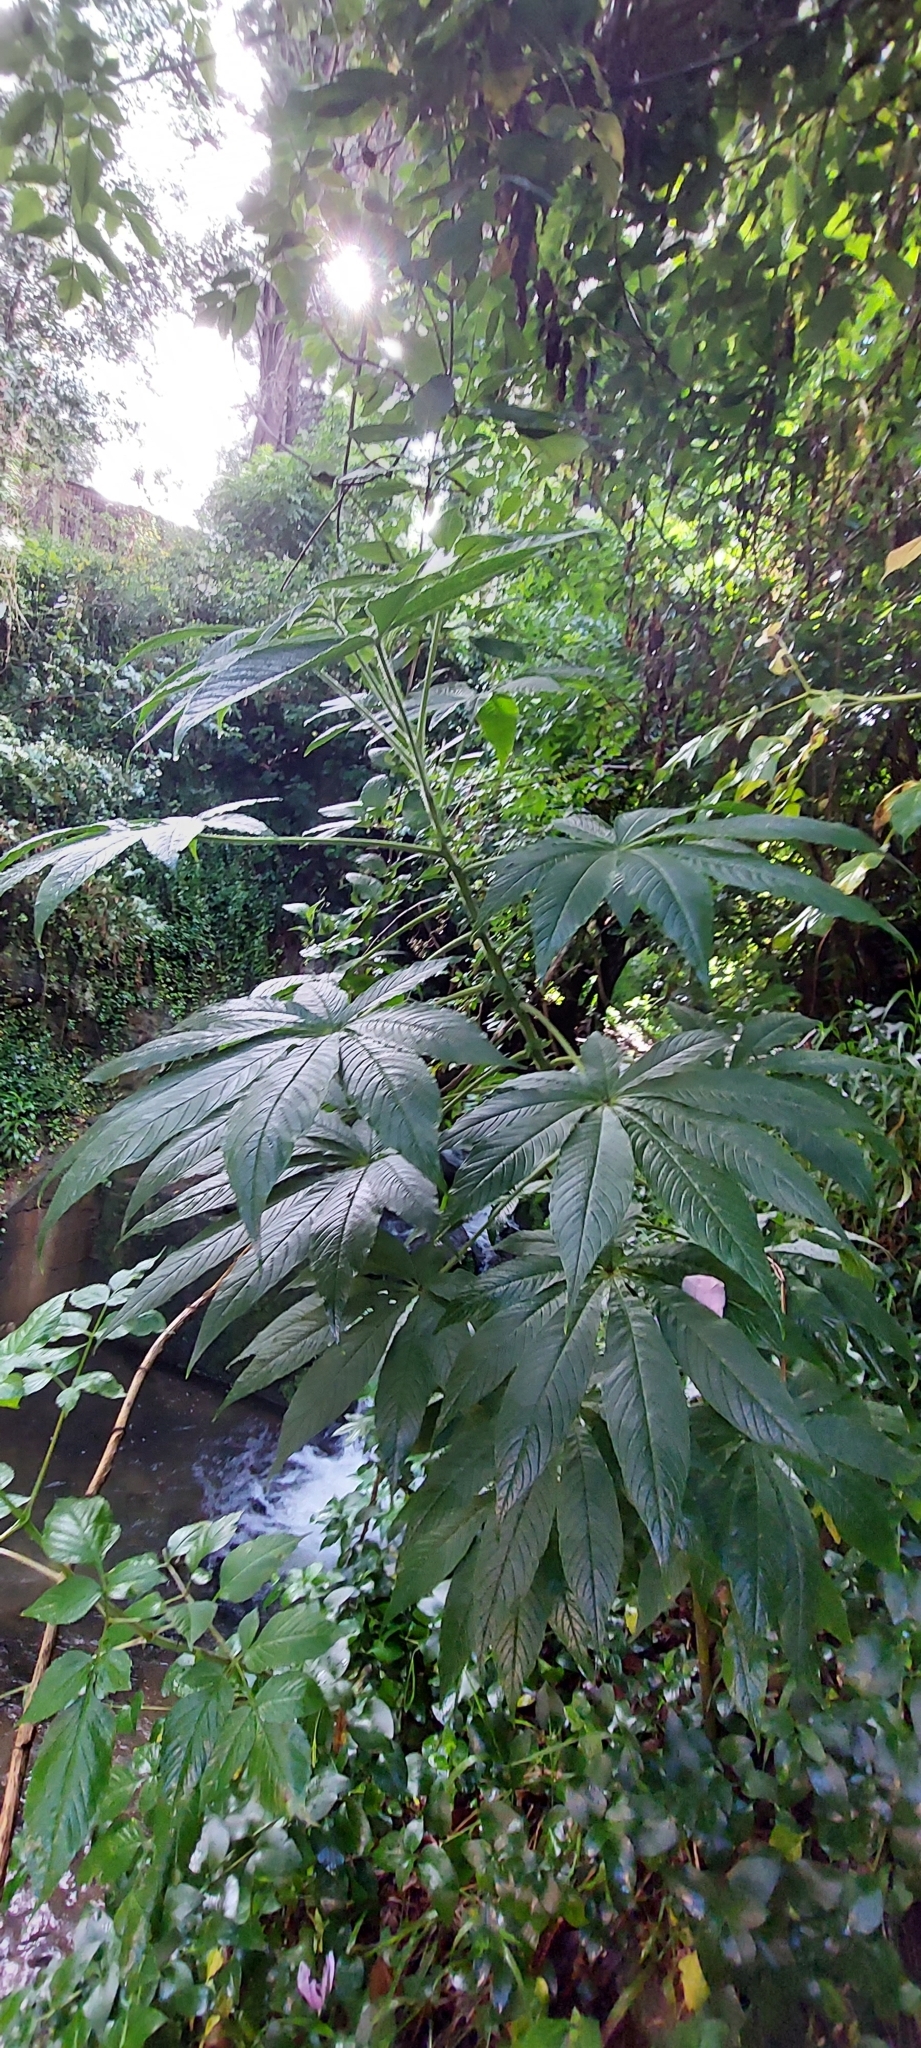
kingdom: Plantae
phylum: Tracheophyta
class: Magnoliopsida
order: Brassicales
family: Cleomaceae
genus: Andinocleome
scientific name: Andinocleome anomala
